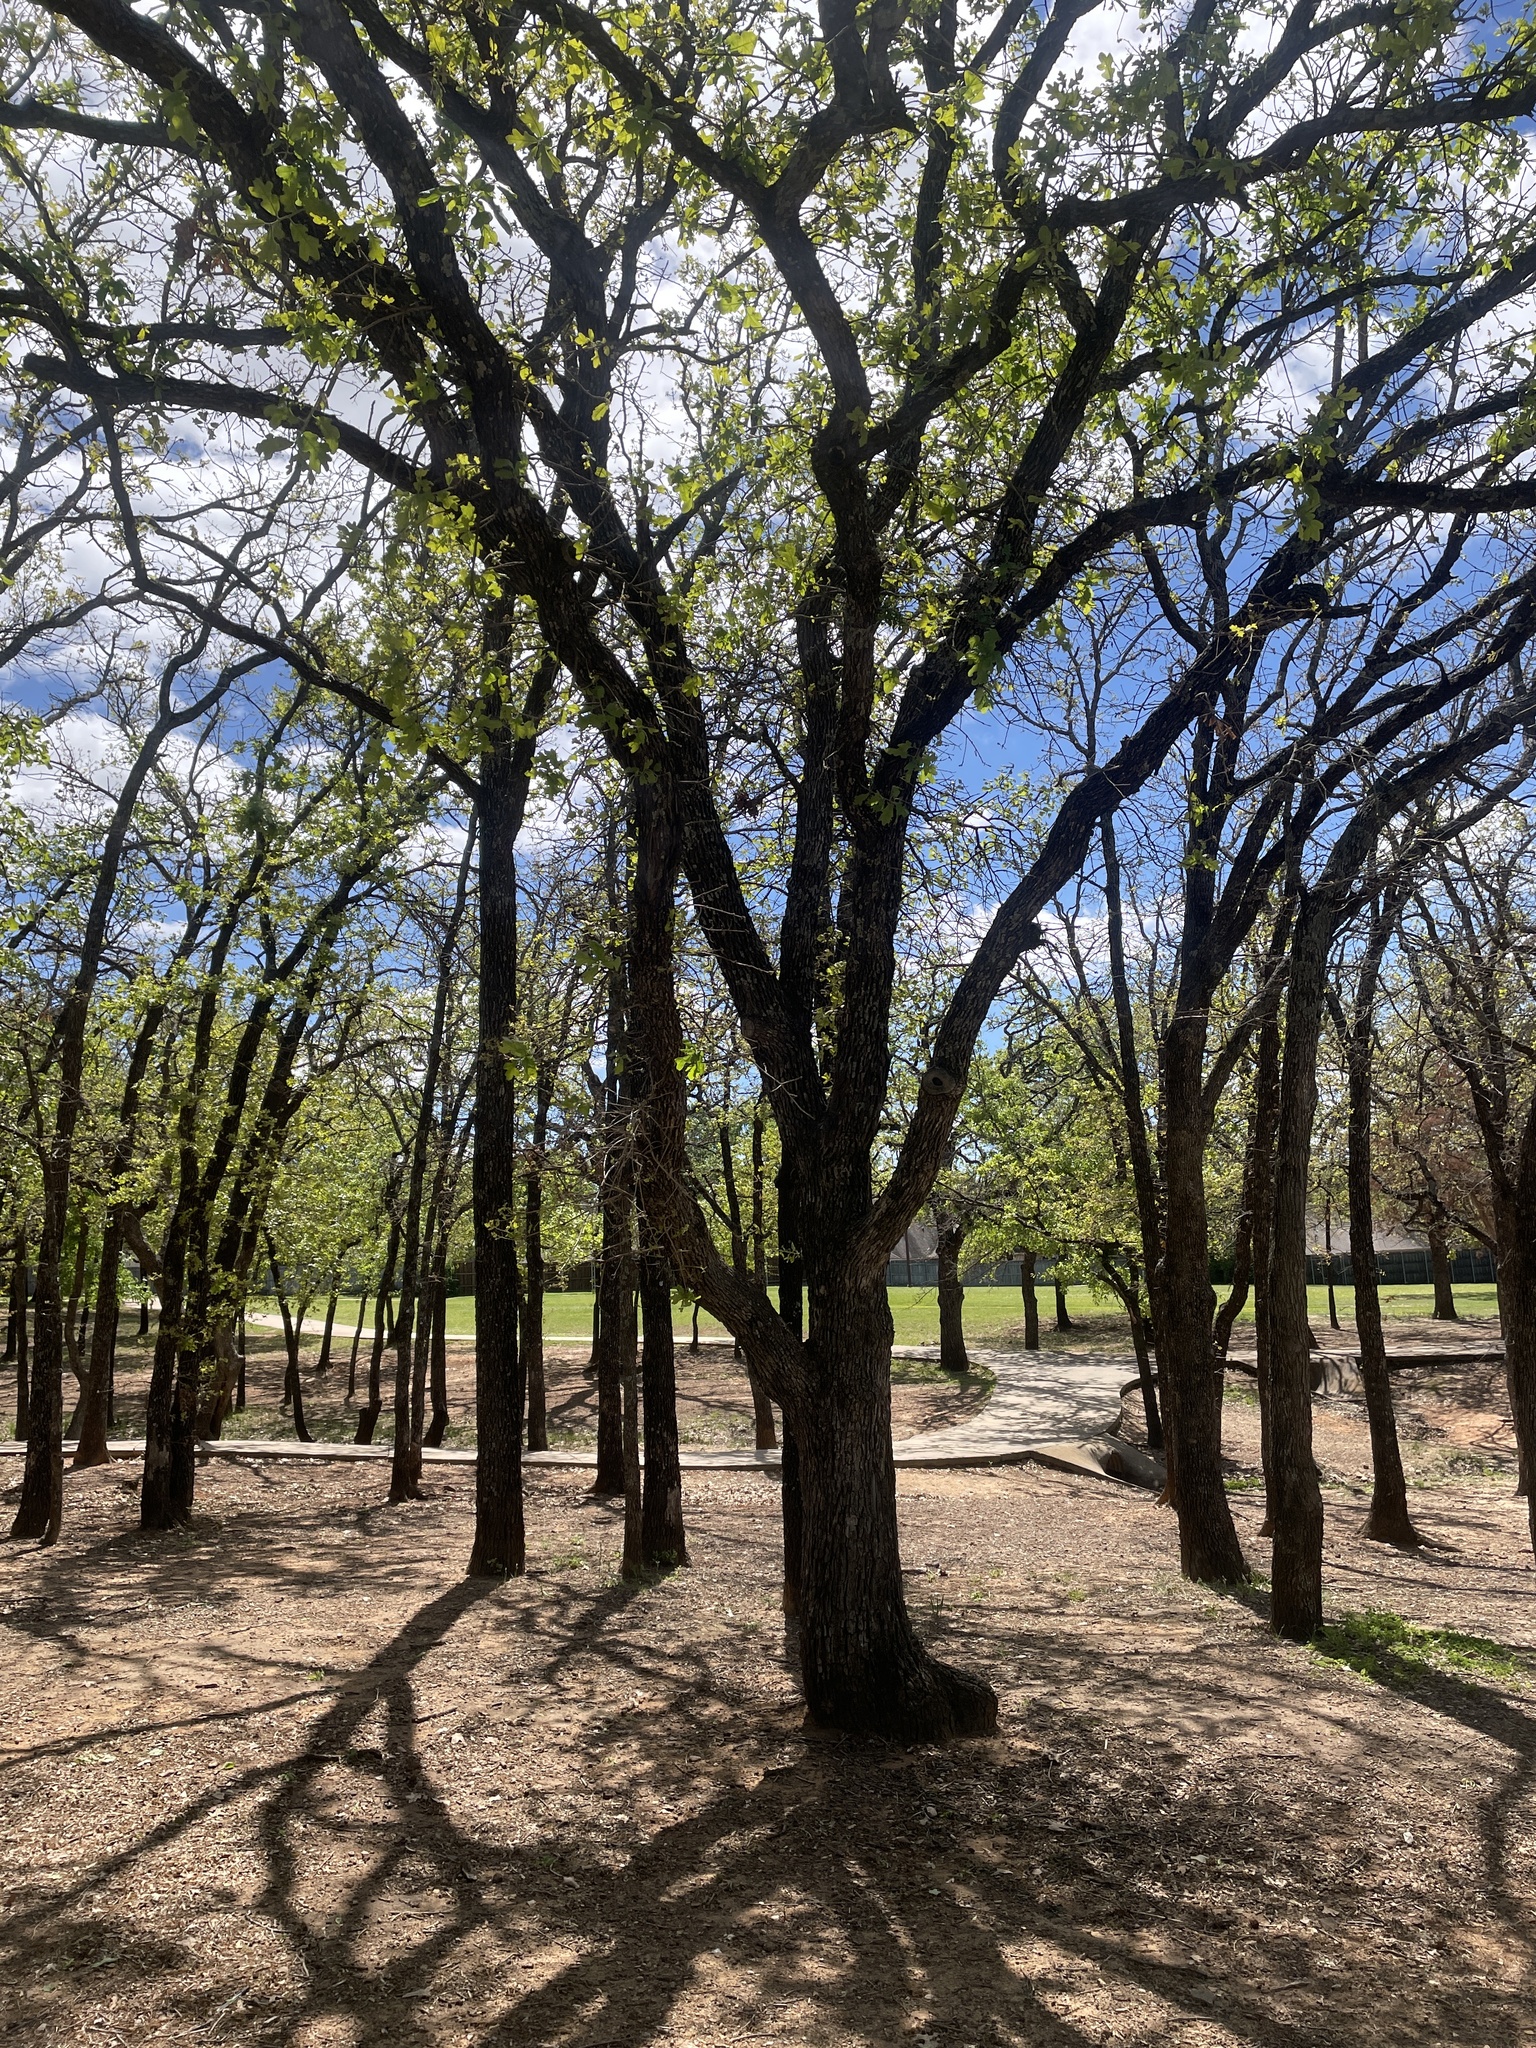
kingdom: Plantae
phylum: Tracheophyta
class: Magnoliopsida
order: Fagales
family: Fagaceae
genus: Quercus
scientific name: Quercus stellata
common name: Post oak
